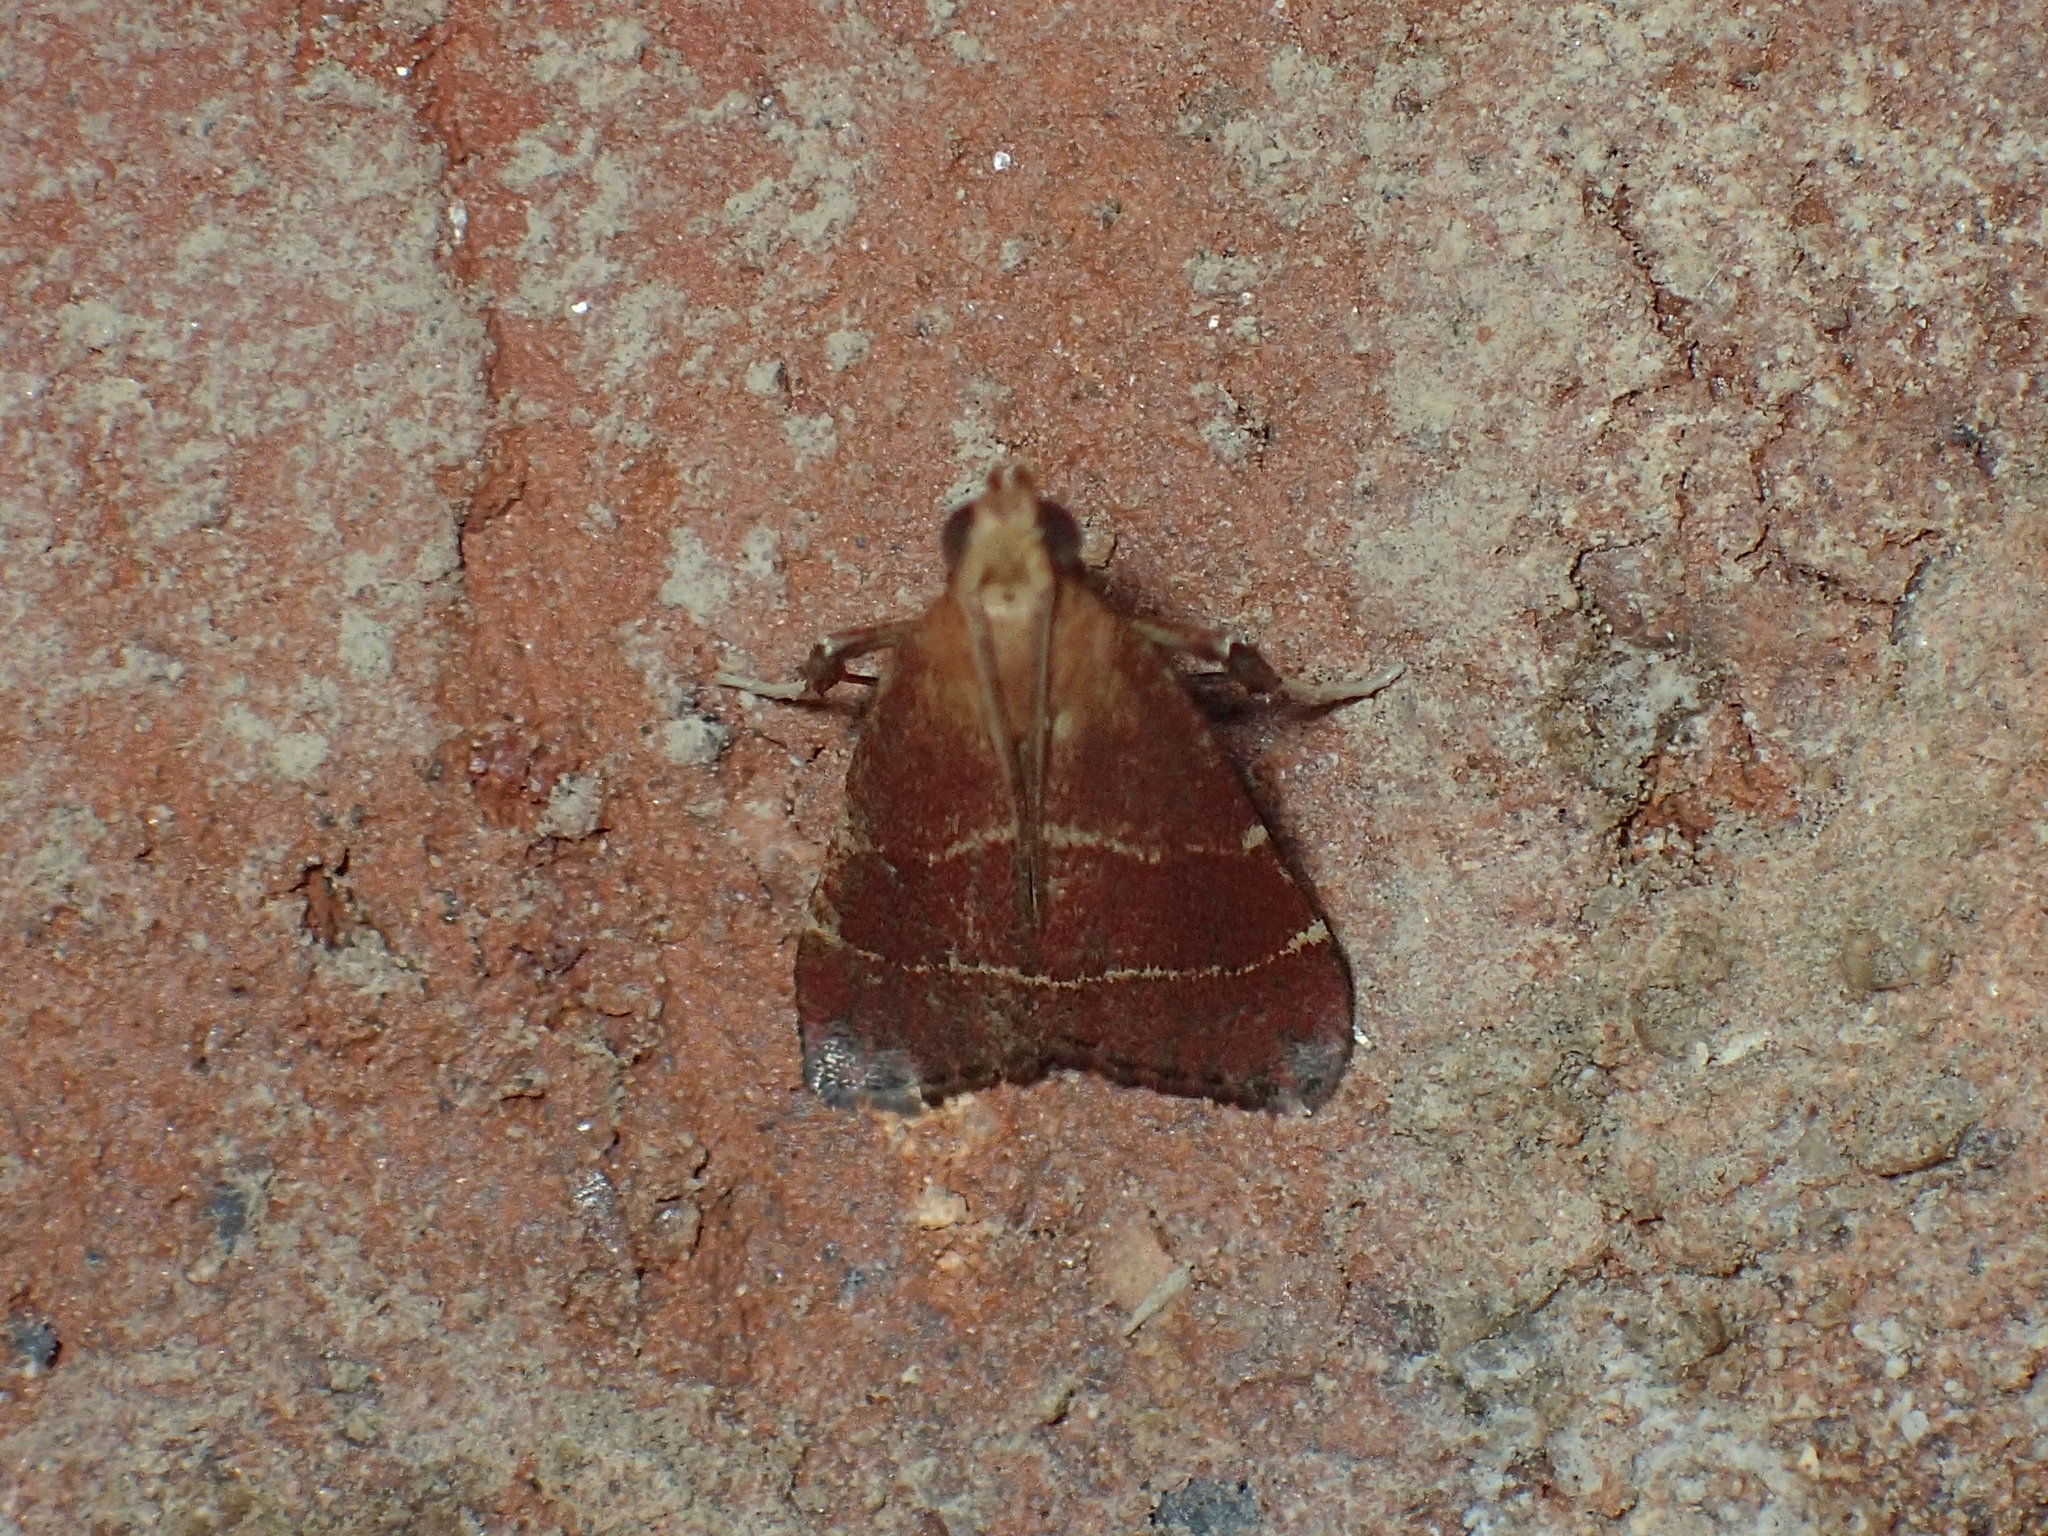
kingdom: Animalia
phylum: Arthropoda
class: Insecta
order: Lepidoptera
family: Pyralidae
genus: Arta
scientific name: Arta statalis
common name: Posturing arta moth
